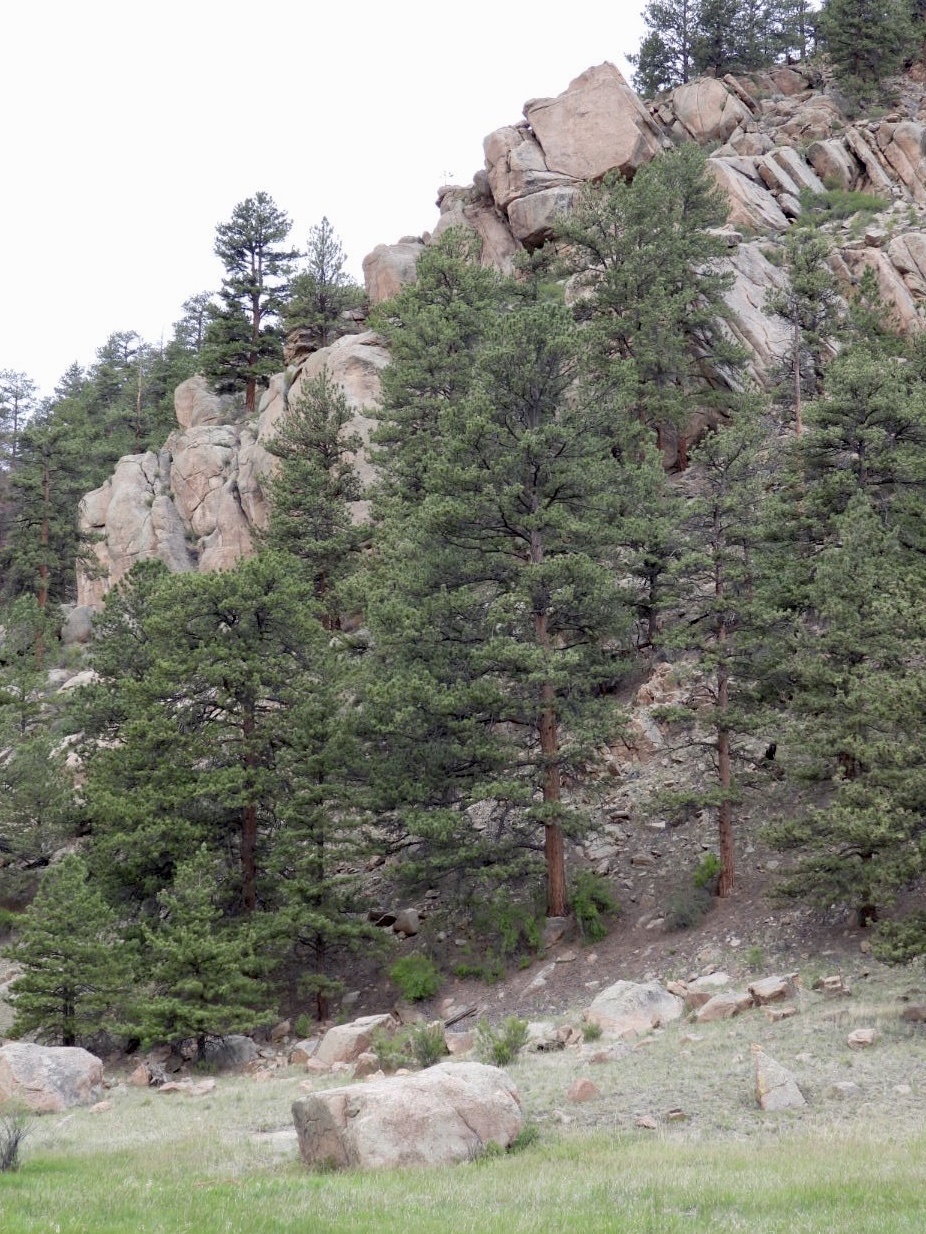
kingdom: Plantae
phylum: Tracheophyta
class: Pinopsida
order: Pinales
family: Pinaceae
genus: Pinus
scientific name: Pinus ponderosa
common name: Western yellow-pine
